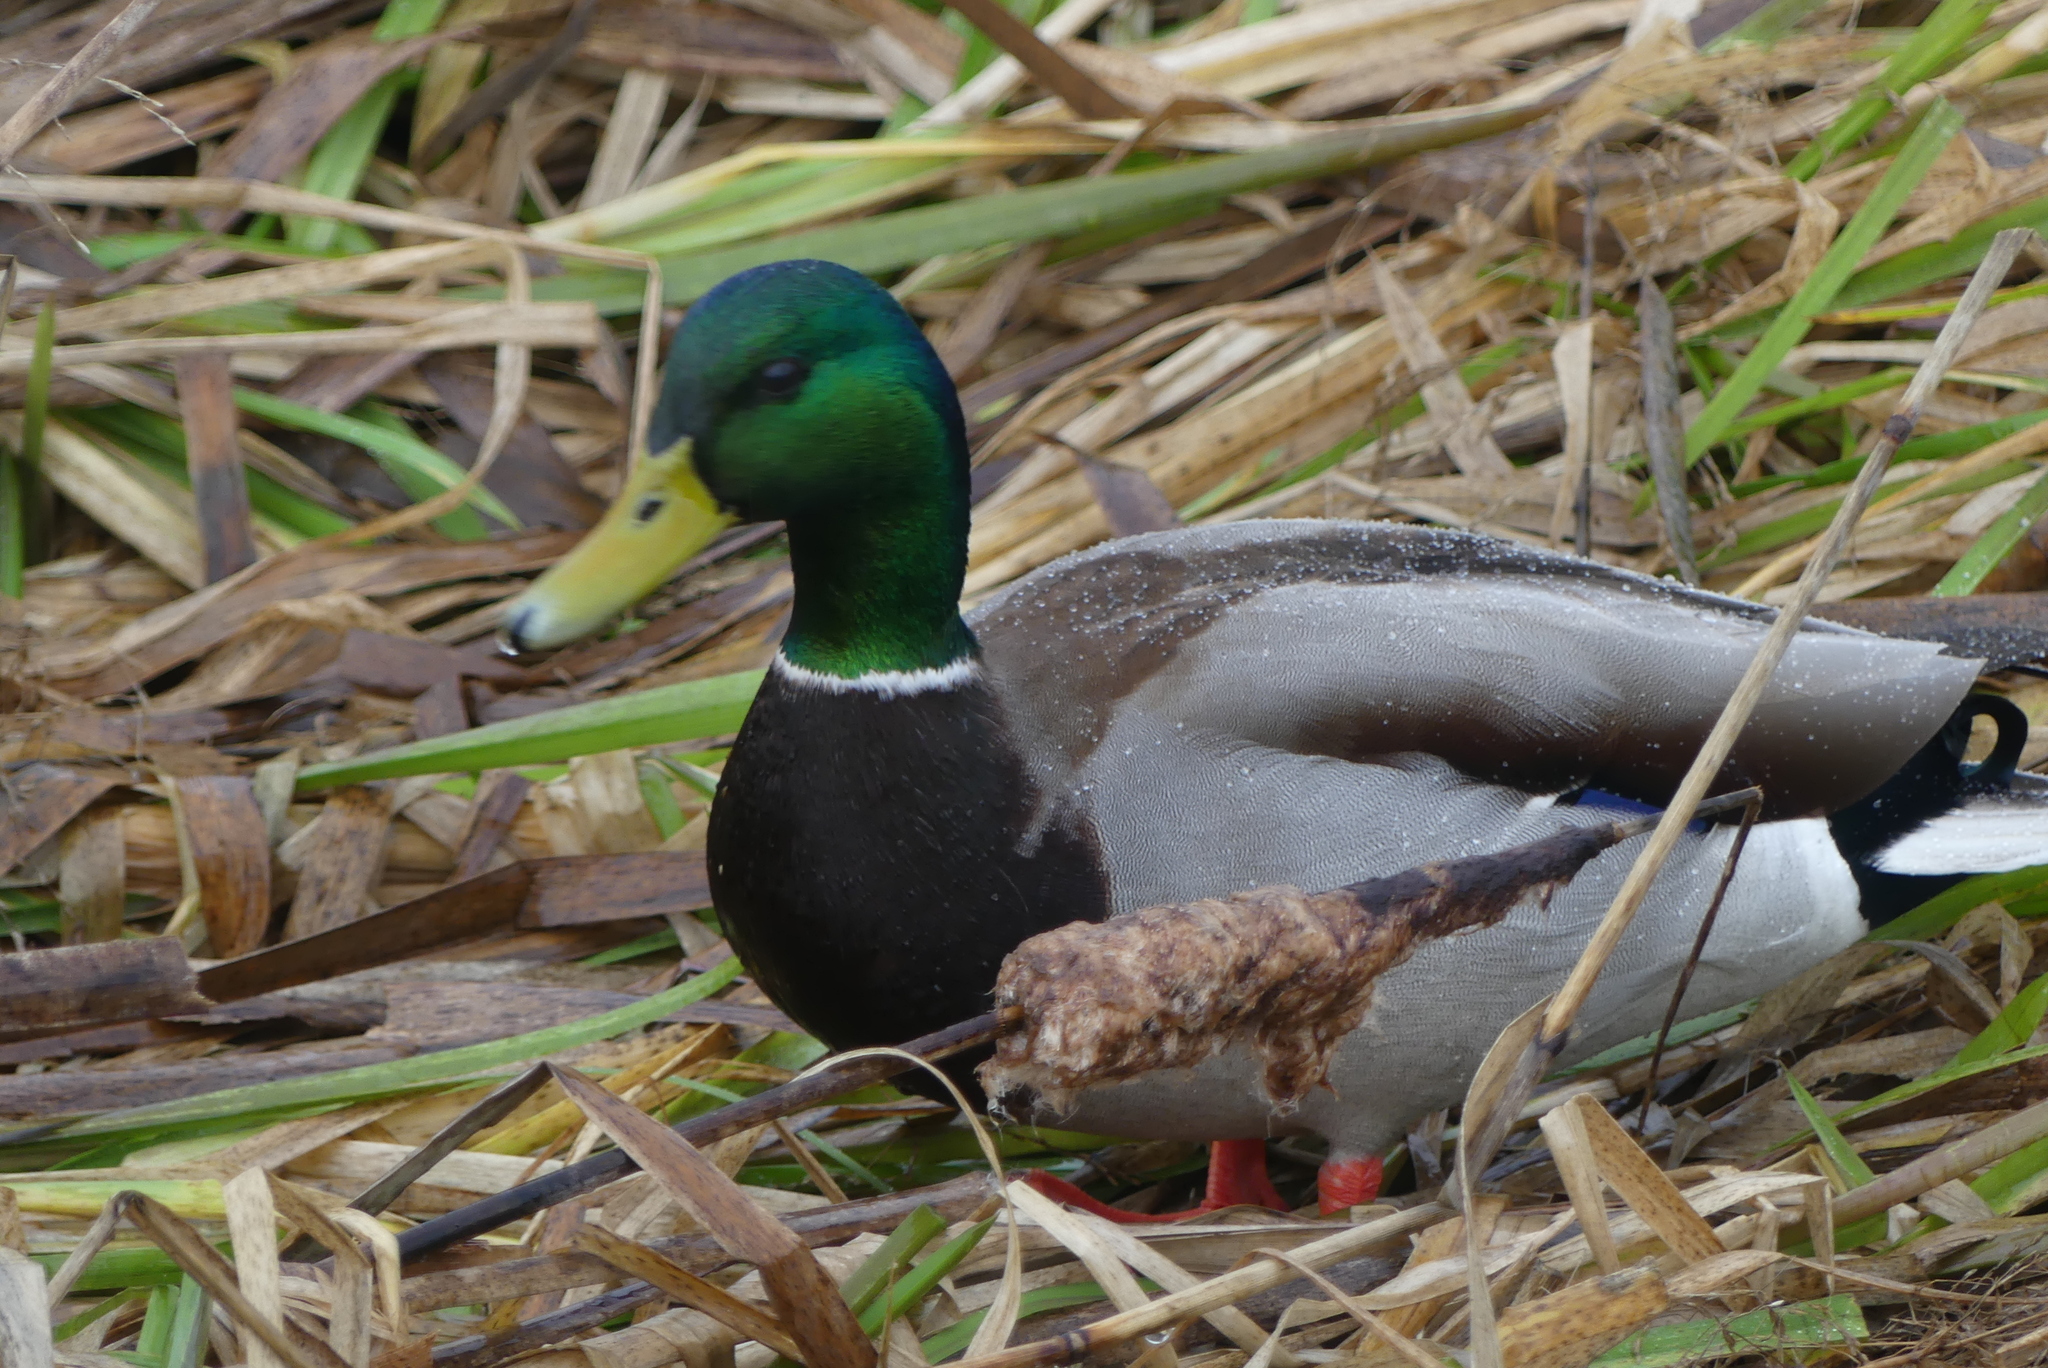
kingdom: Animalia
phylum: Chordata
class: Aves
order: Anseriformes
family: Anatidae
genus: Anas
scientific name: Anas platyrhynchos
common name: Mallard
